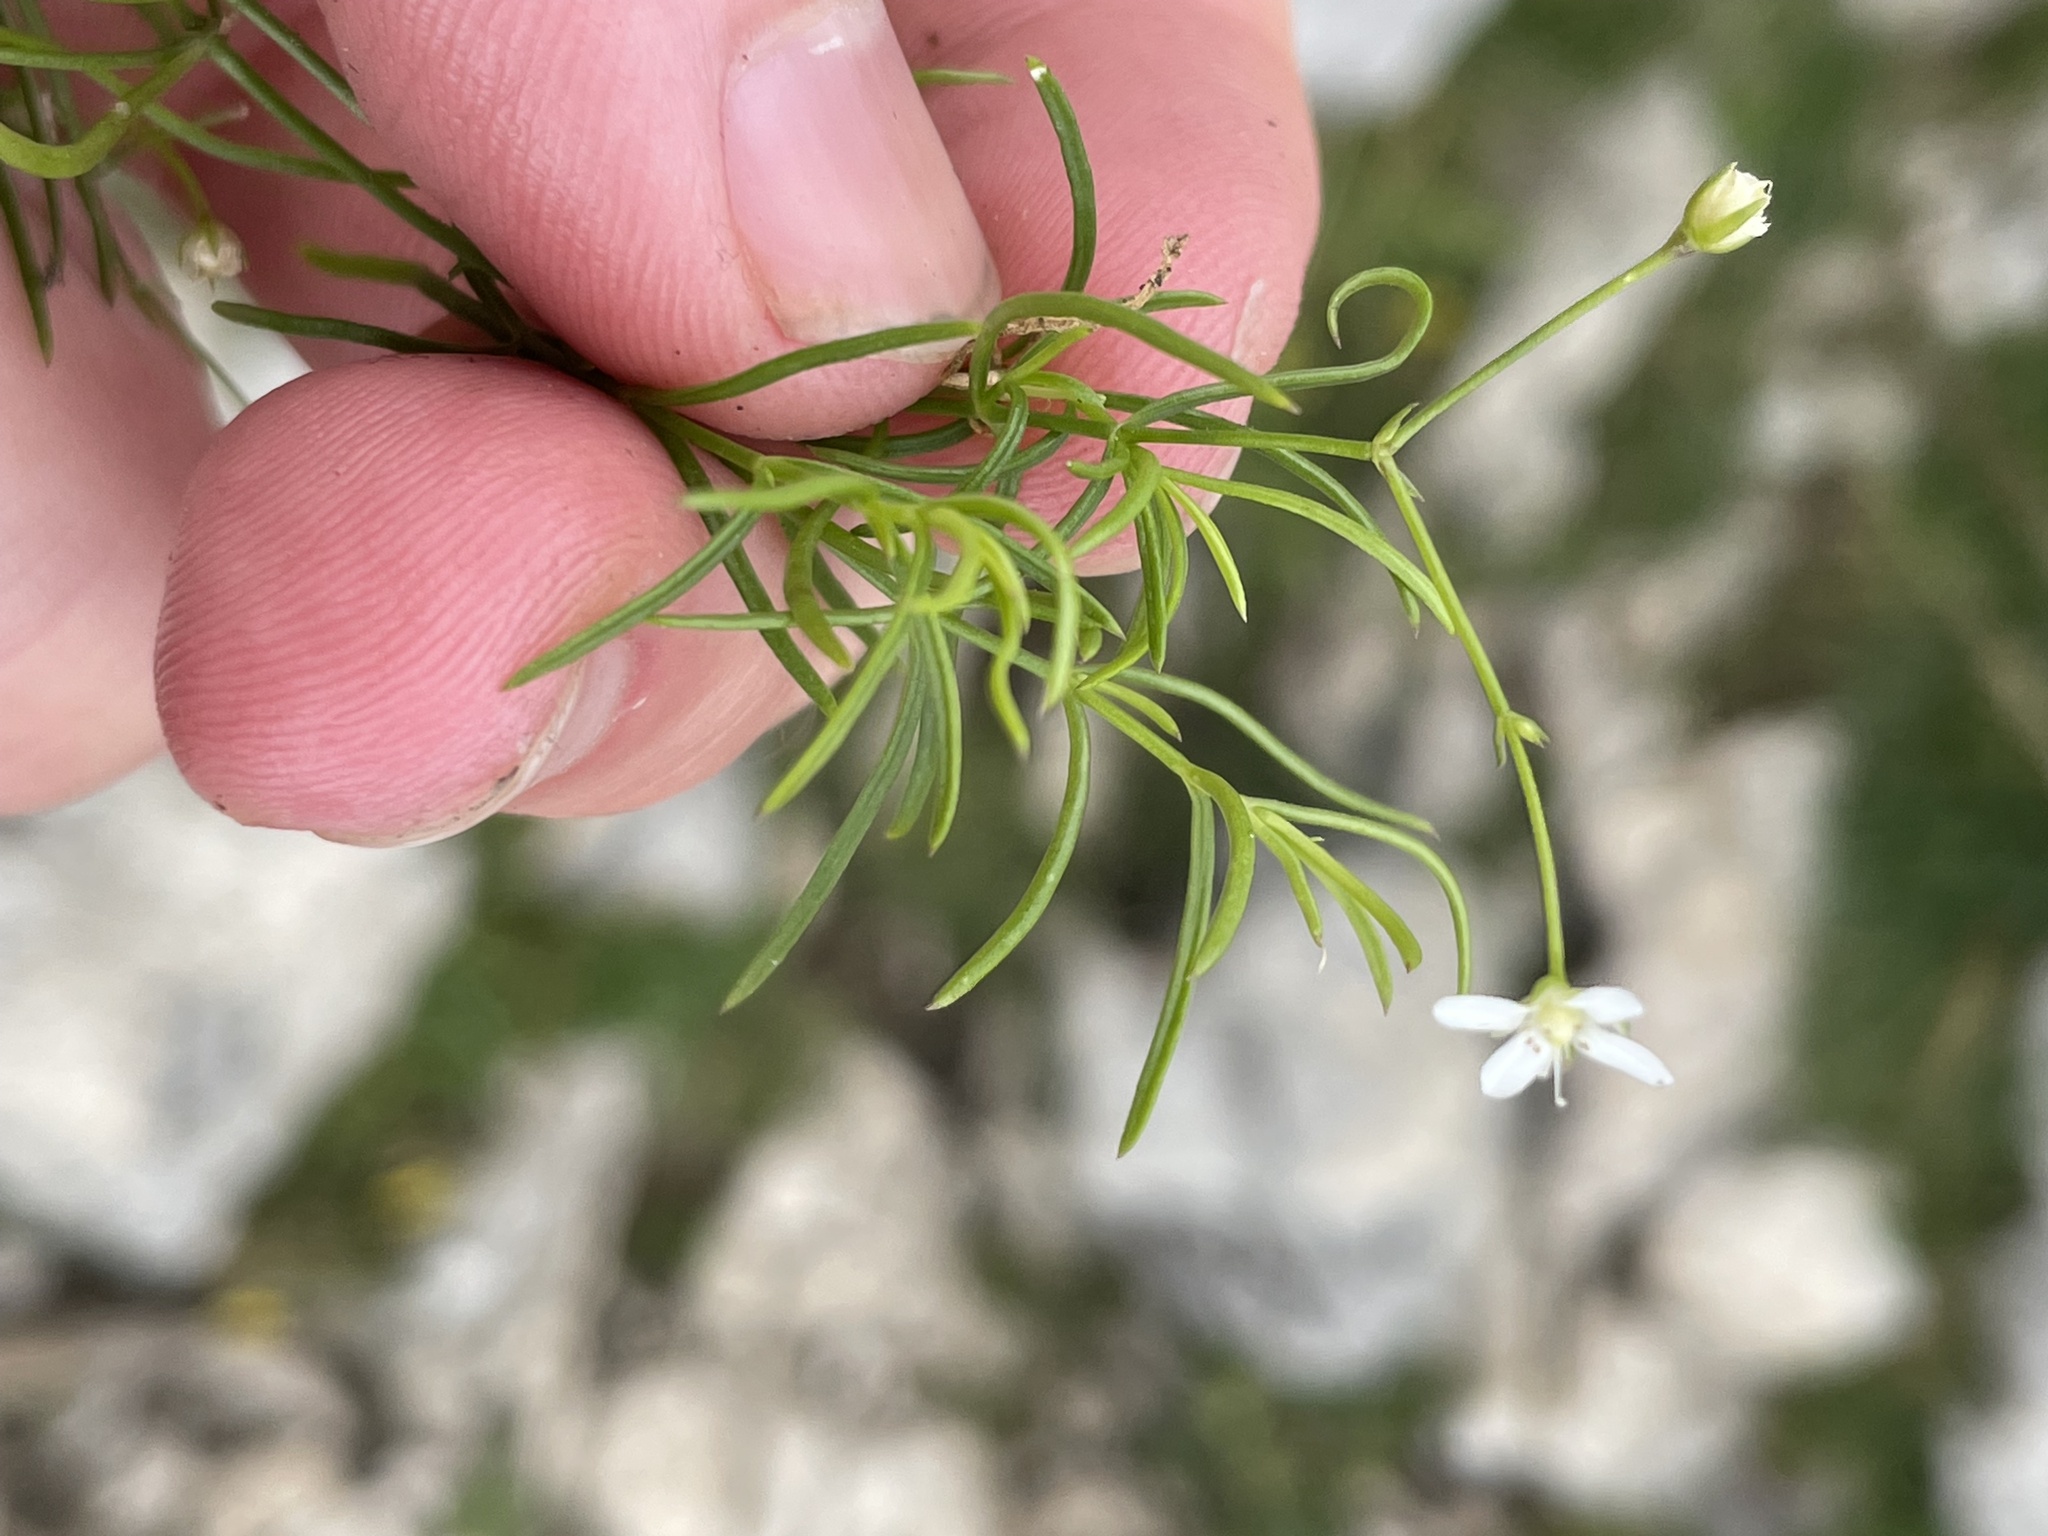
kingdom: Plantae
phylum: Tracheophyta
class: Magnoliopsida
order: Caryophyllales
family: Caryophyllaceae
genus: Moehringia
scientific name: Moehringia muscosa
